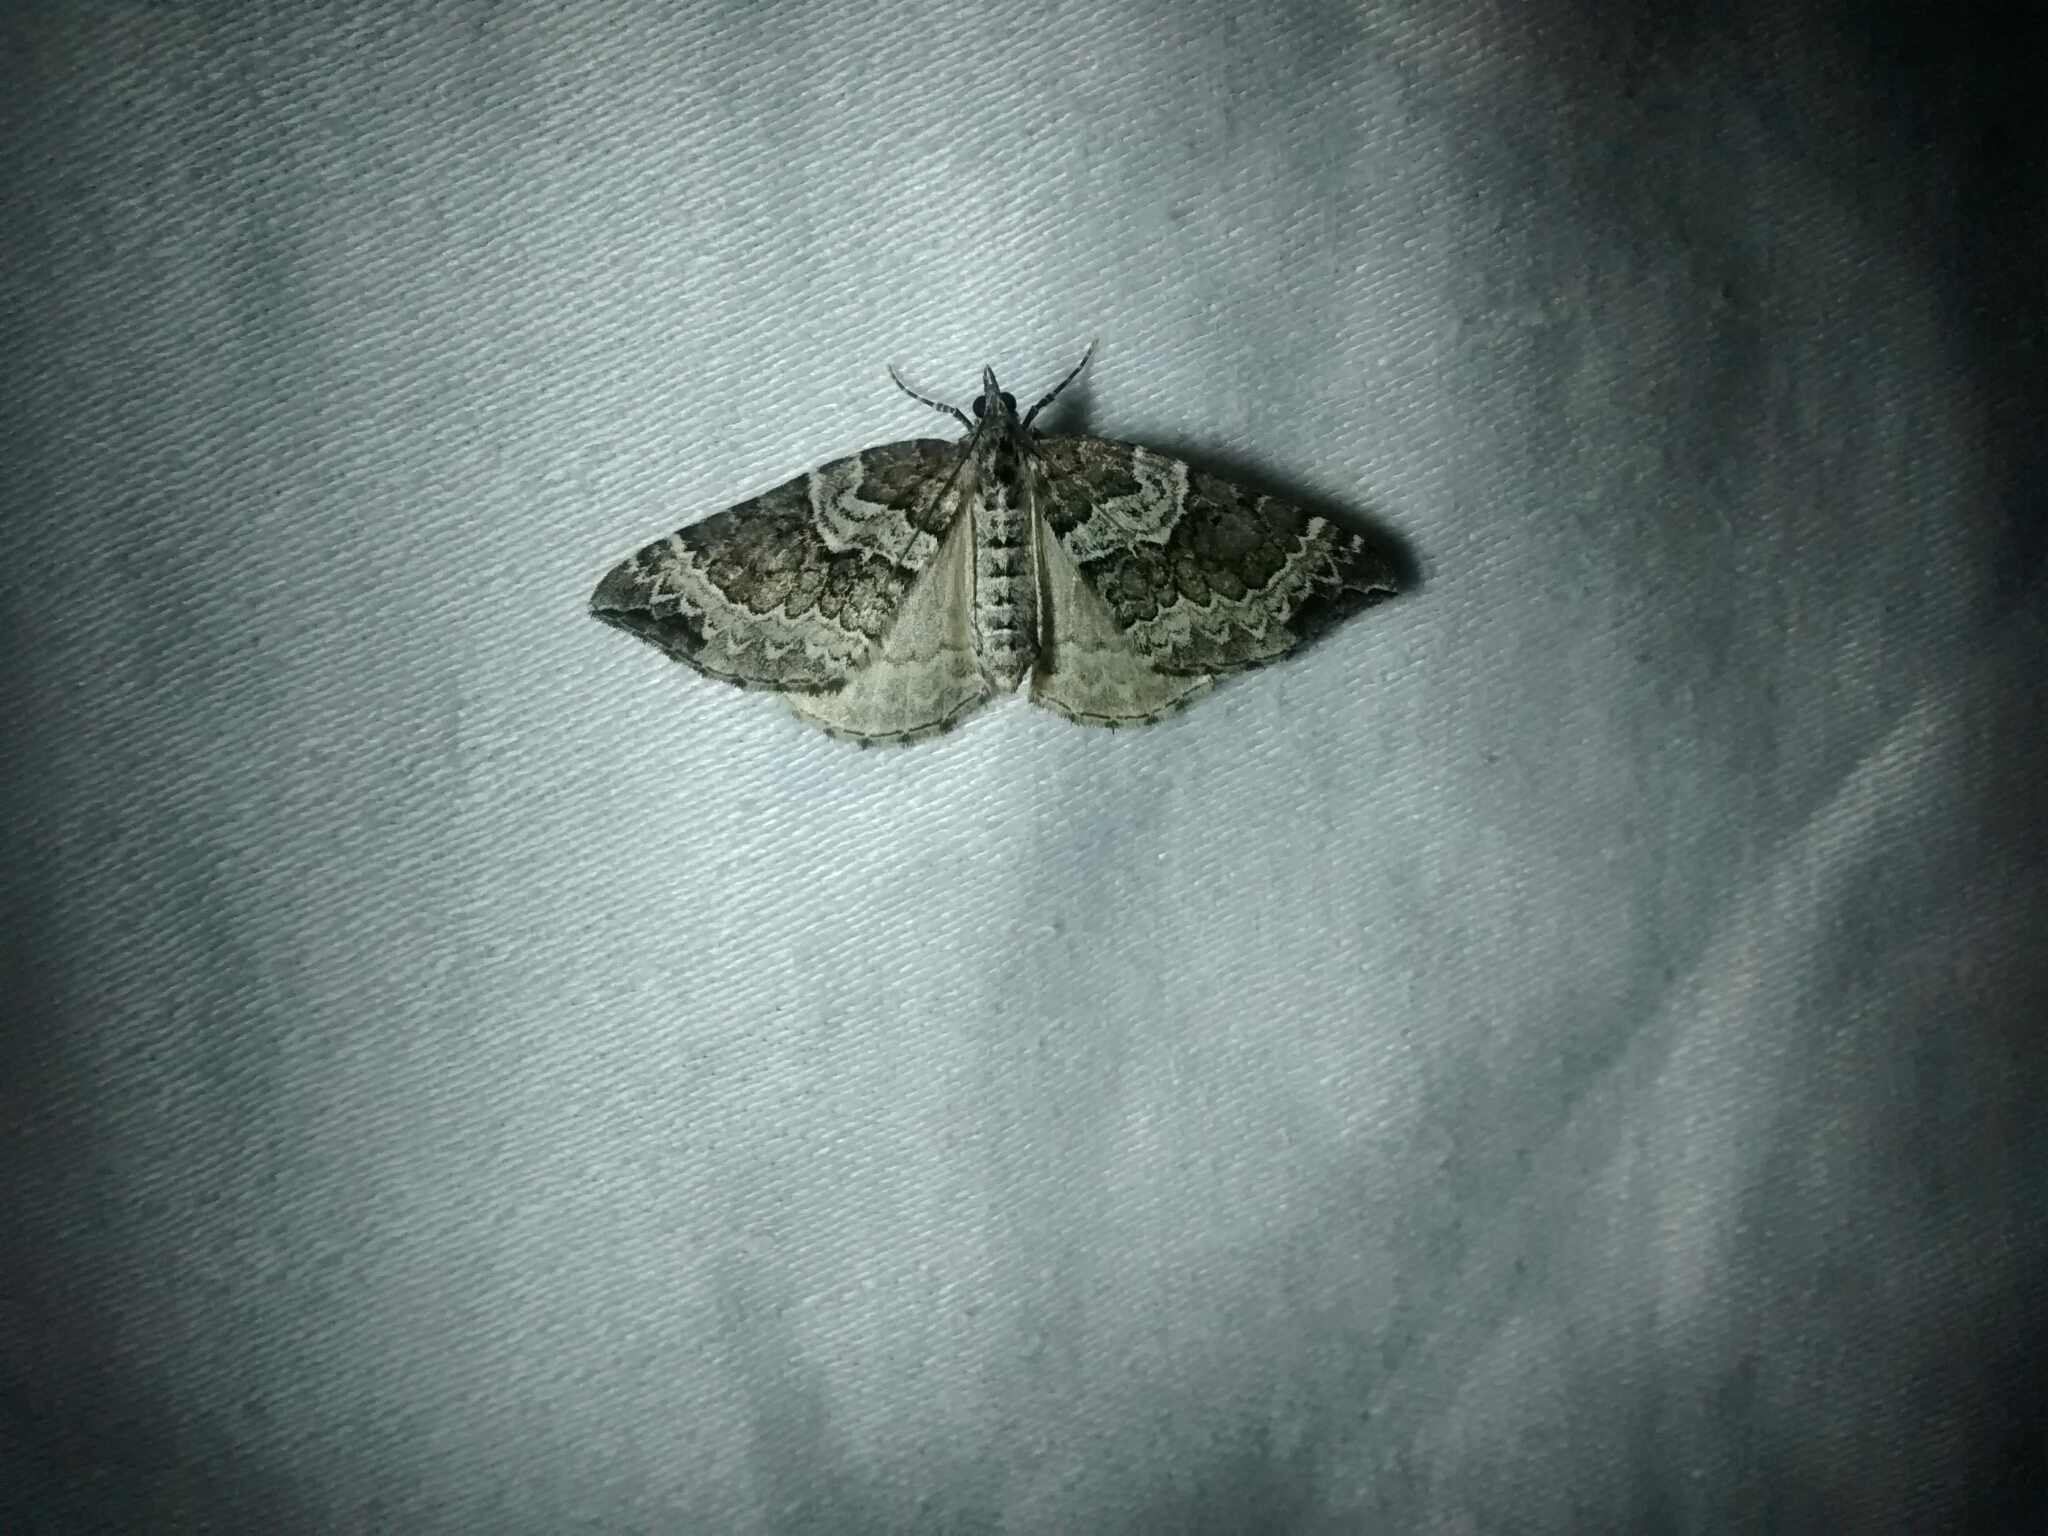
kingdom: Animalia
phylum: Arthropoda
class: Insecta
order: Lepidoptera
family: Geometridae
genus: Eulithis
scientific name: Eulithis explanata
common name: White eulithis
